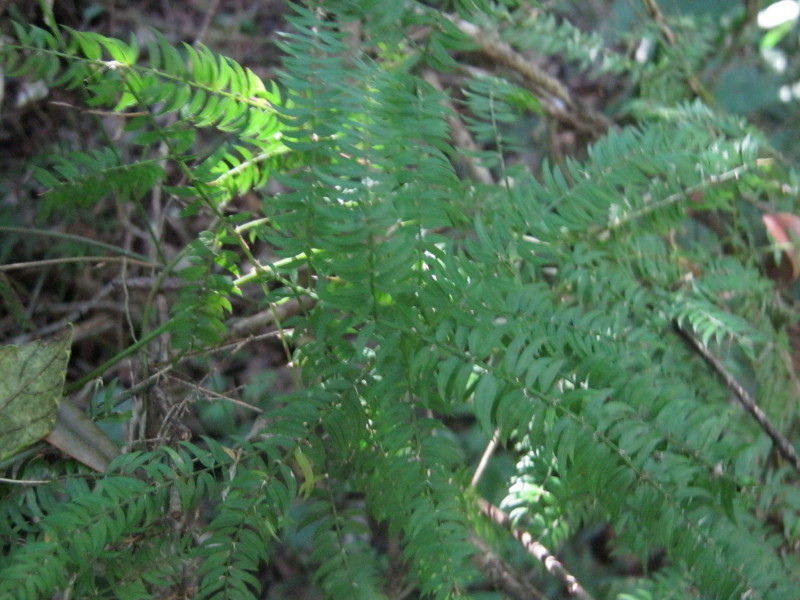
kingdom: Plantae
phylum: Tracheophyta
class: Liliopsida
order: Asparagales
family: Asparagaceae
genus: Asparagus
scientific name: Asparagus scandens
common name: Asparagus-fern
